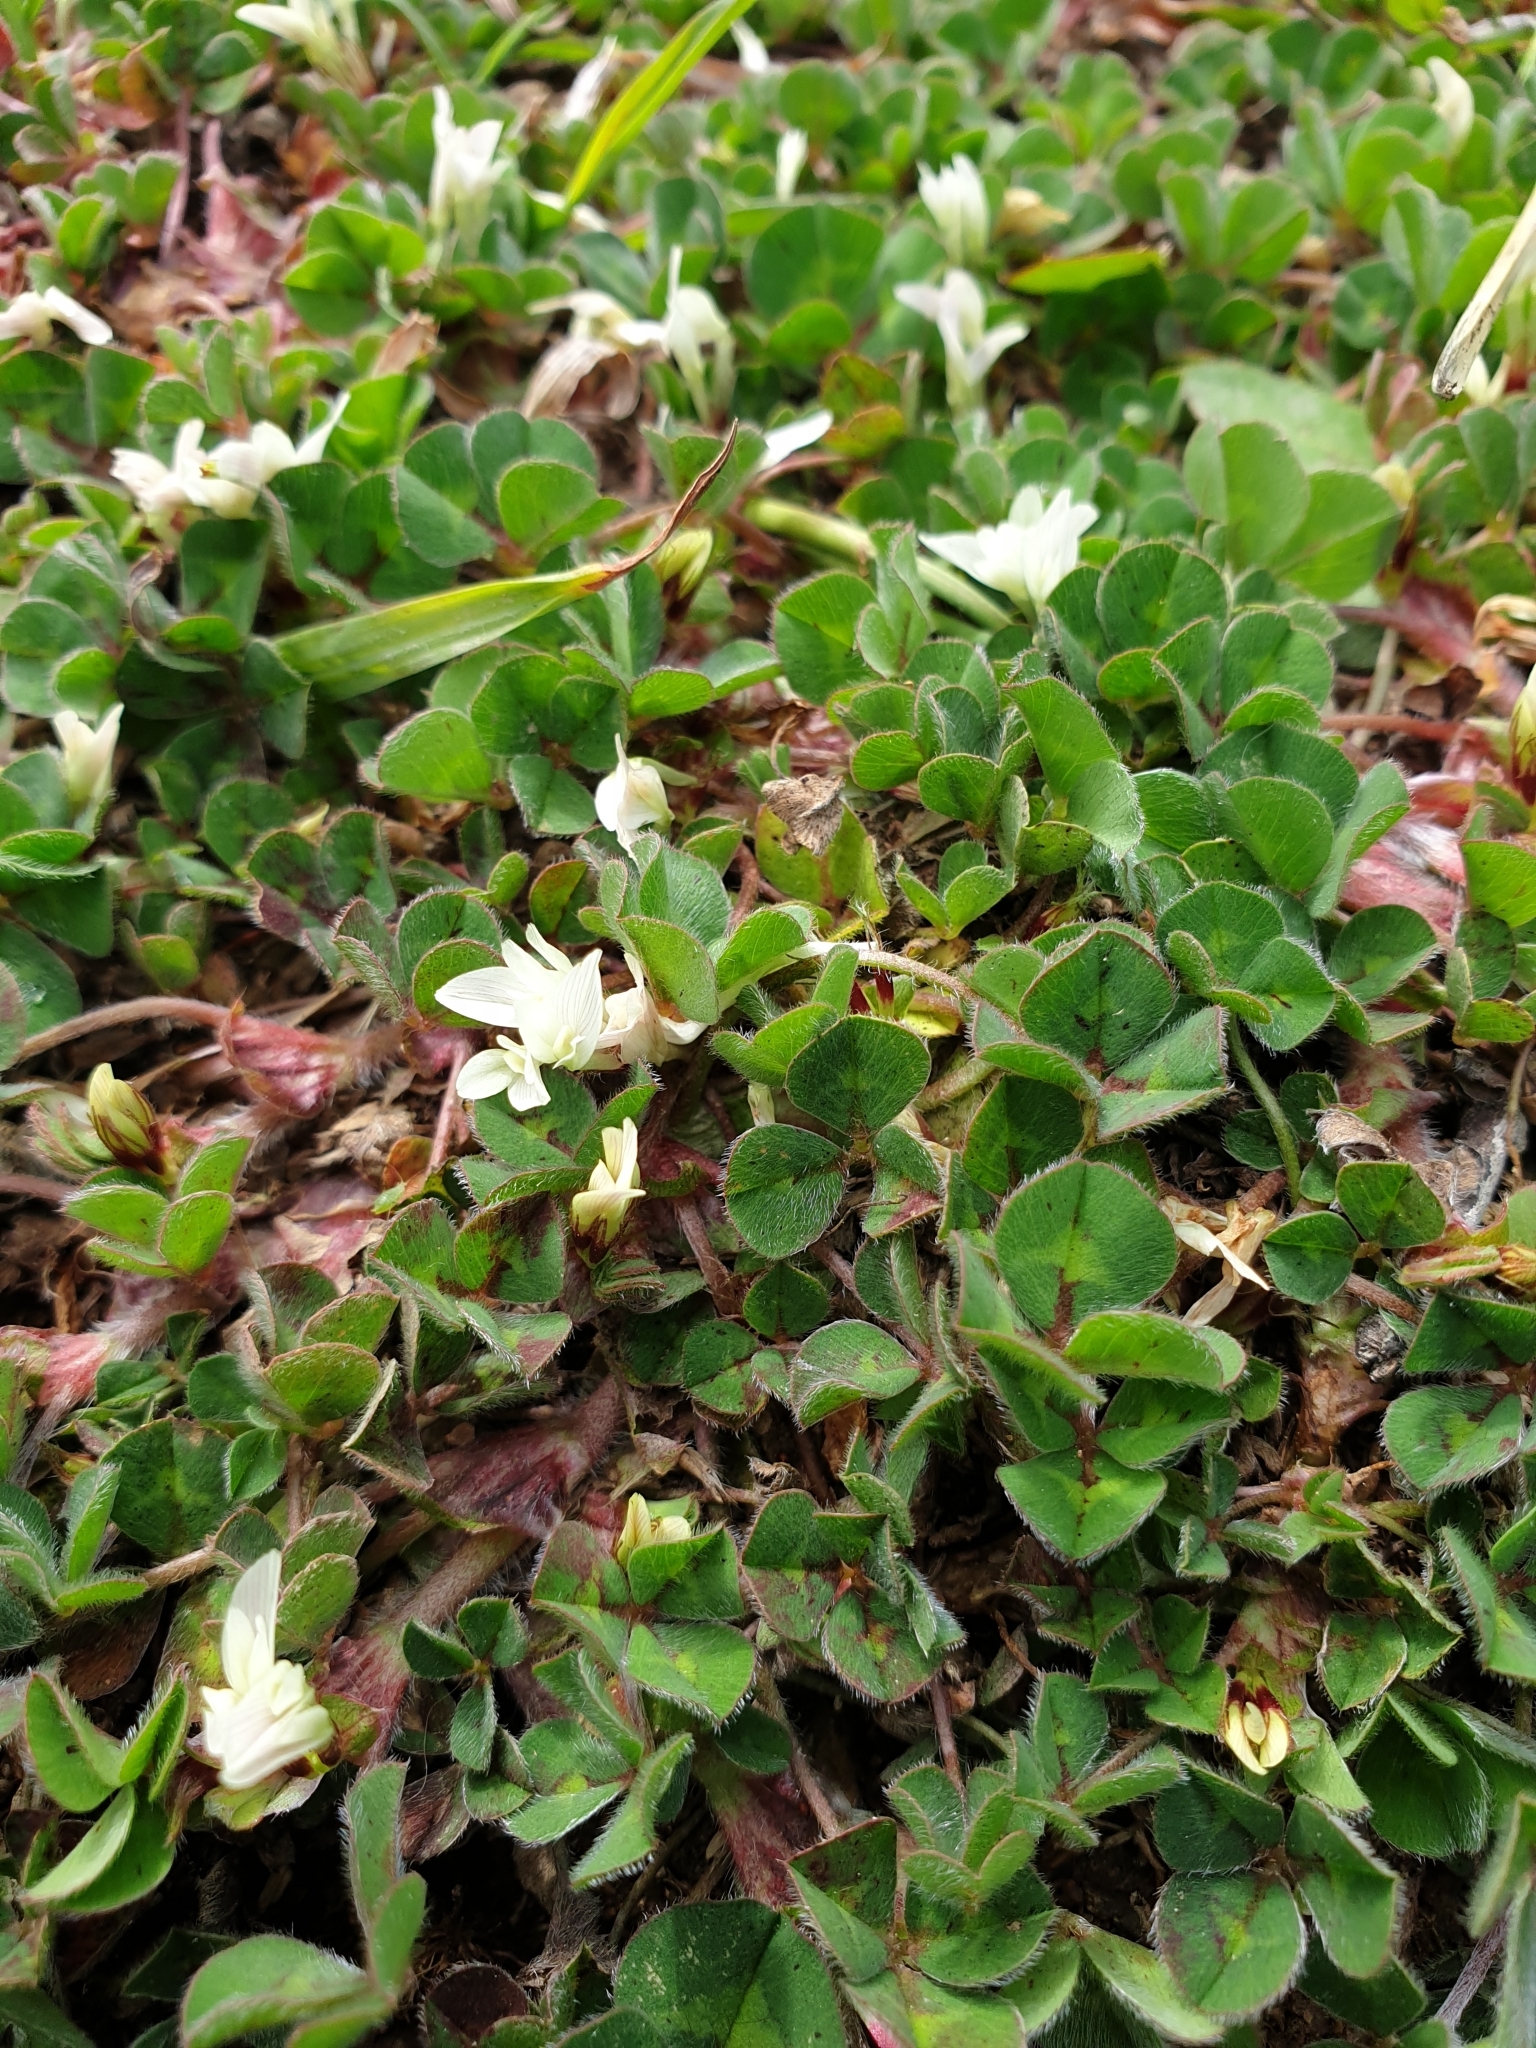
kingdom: Plantae
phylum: Tracheophyta
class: Magnoliopsida
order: Fabales
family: Fabaceae
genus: Trifolium
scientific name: Trifolium subterraneum
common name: Subterranean clover
